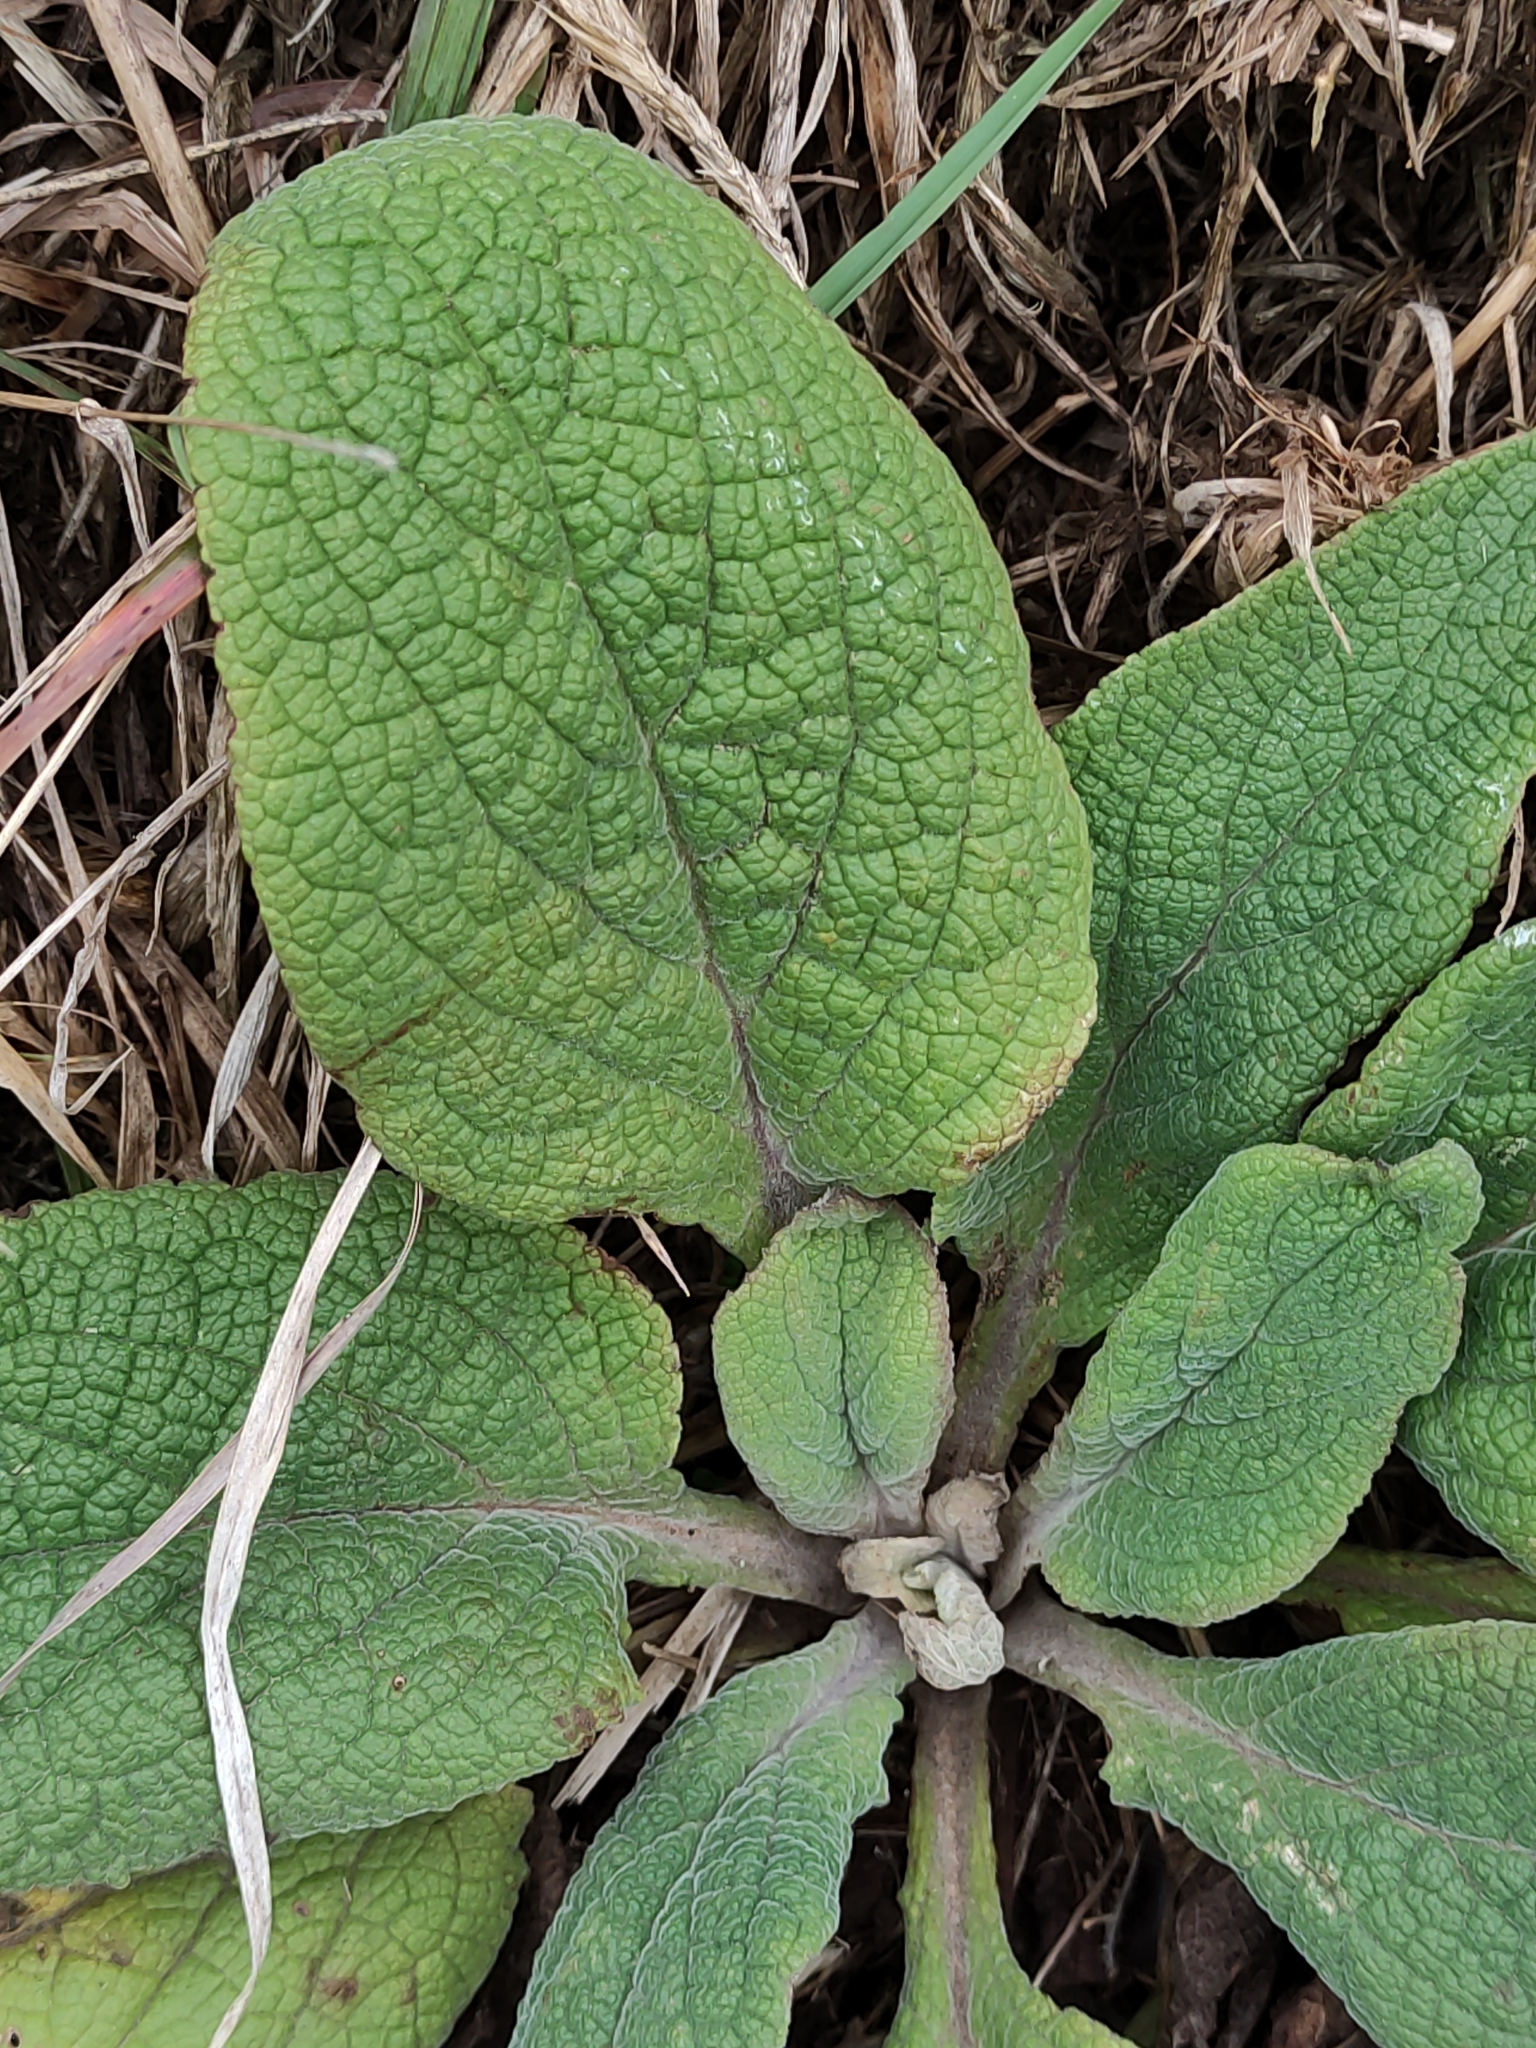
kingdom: Plantae
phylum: Tracheophyta
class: Magnoliopsida
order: Lamiales
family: Plantaginaceae
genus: Digitalis
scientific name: Digitalis purpurea
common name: Foxglove
